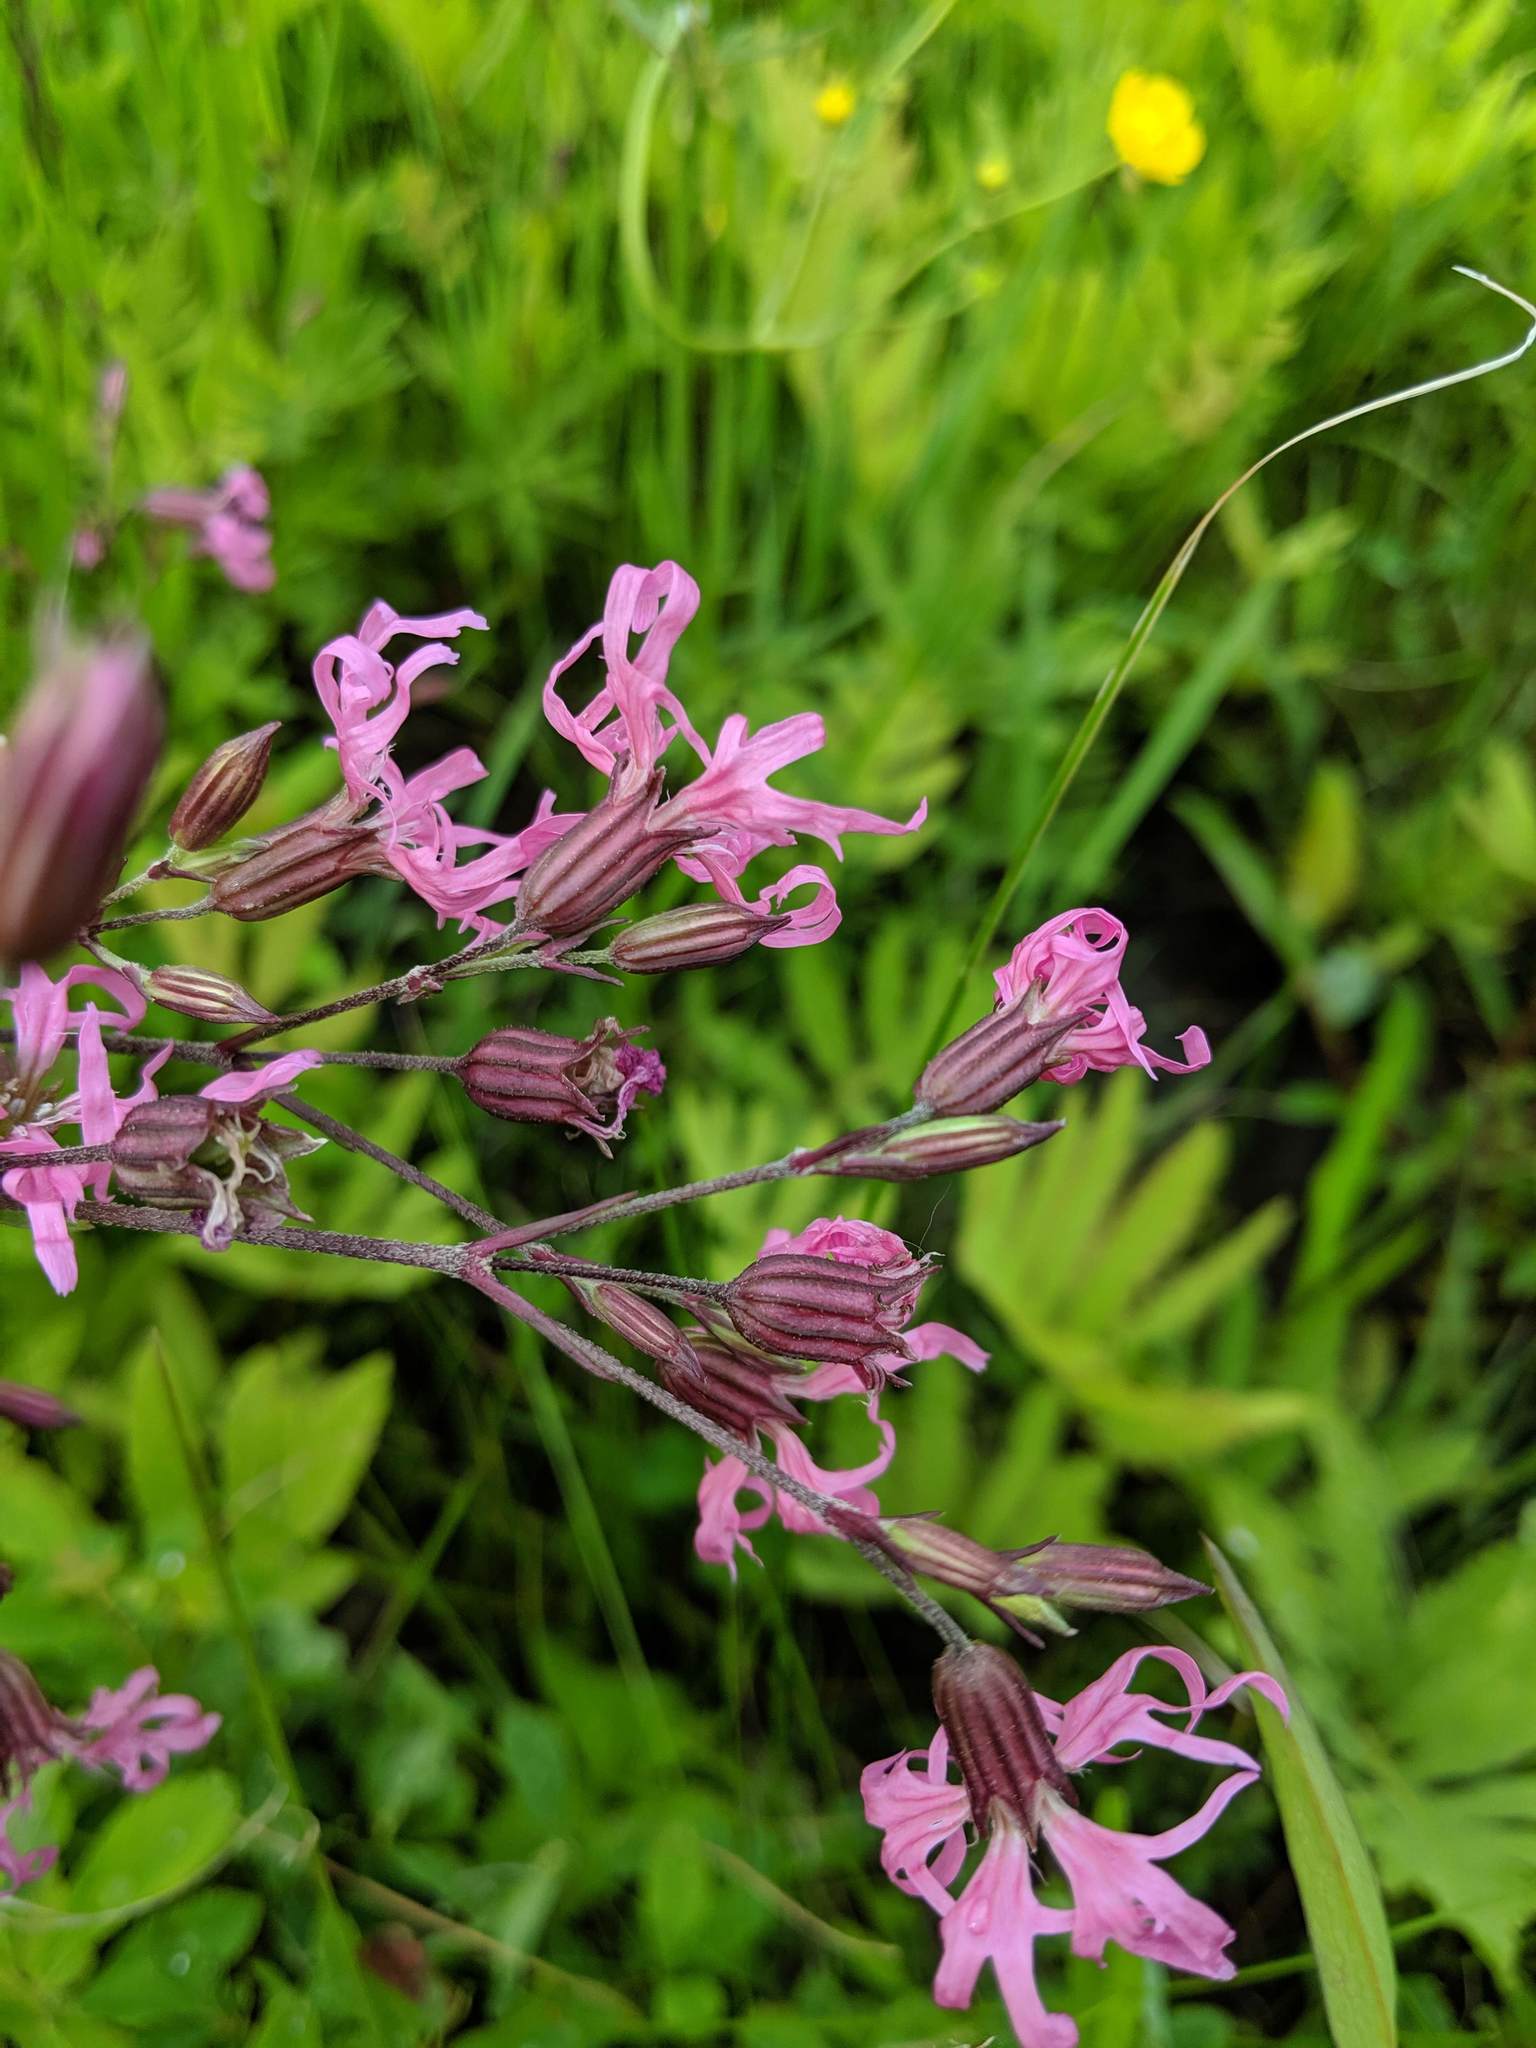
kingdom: Plantae
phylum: Tracheophyta
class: Magnoliopsida
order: Caryophyllales
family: Caryophyllaceae
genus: Silene
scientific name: Silene flos-cuculi
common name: Ragged-robin
